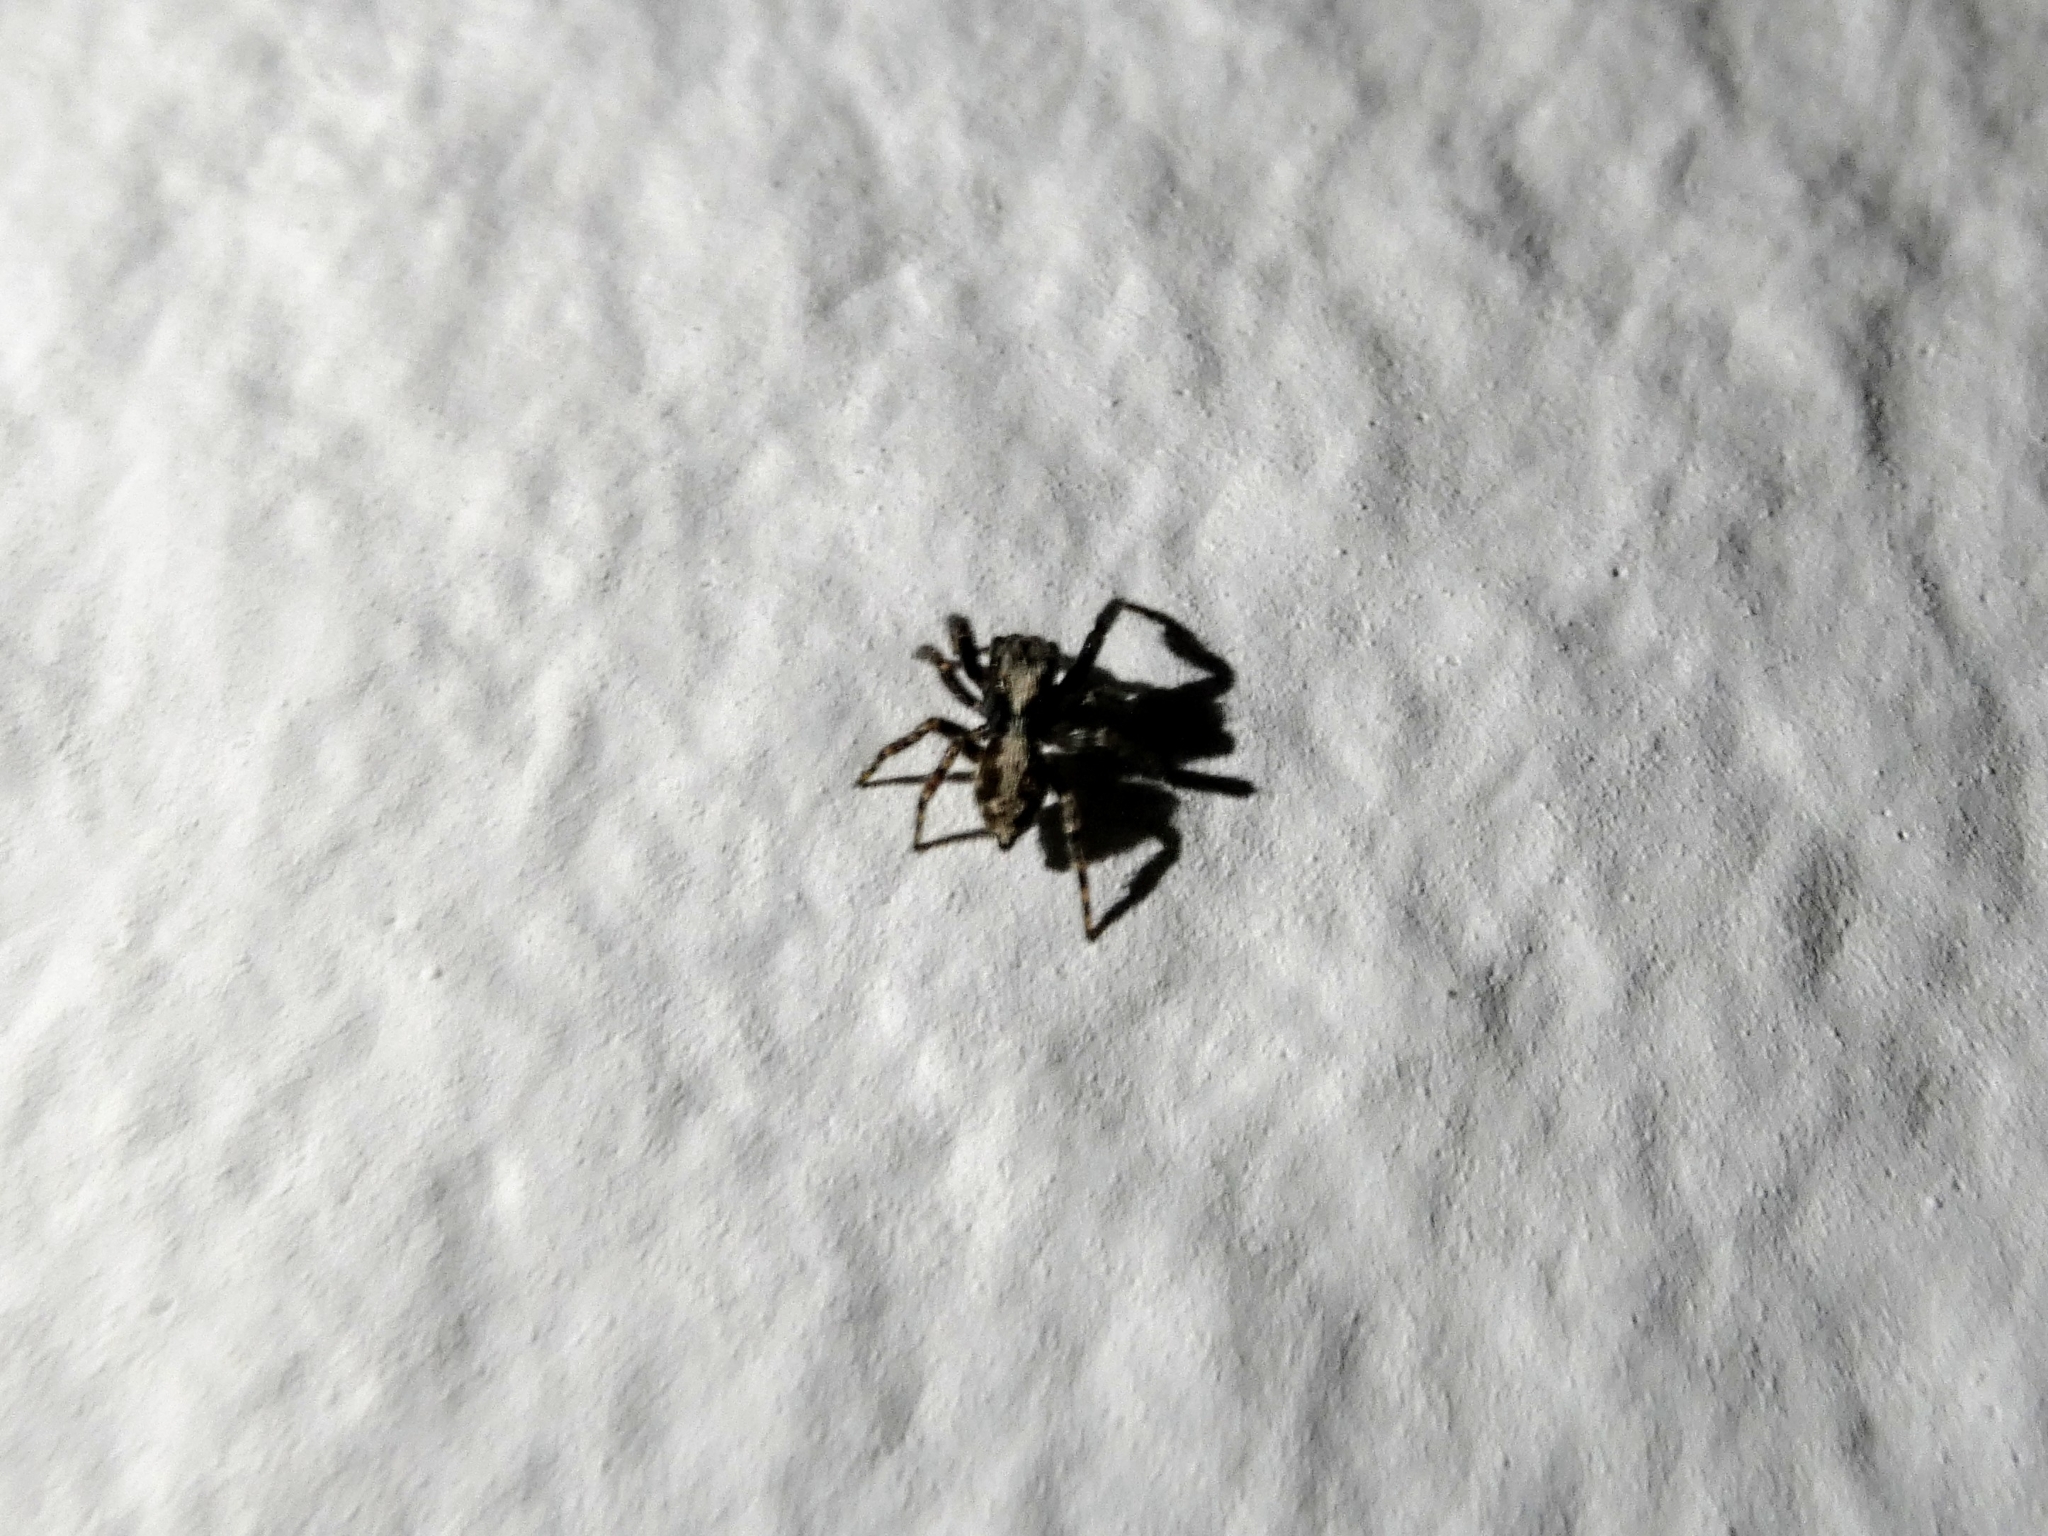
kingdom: Animalia
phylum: Arthropoda
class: Arachnida
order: Araneae
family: Salticidae
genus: Pseudeuophrys
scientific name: Pseudeuophrys lanigera
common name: Jumping spider
